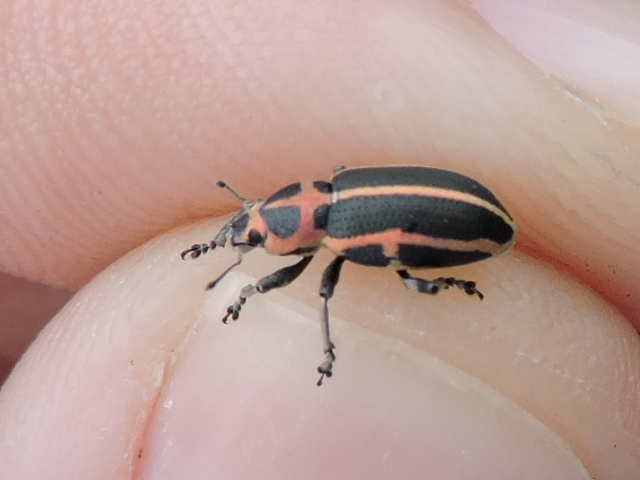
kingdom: Animalia
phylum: Arthropoda
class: Insecta
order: Coleoptera
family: Curculionidae
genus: Eudiagogus
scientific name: Eudiagogus pulcher
